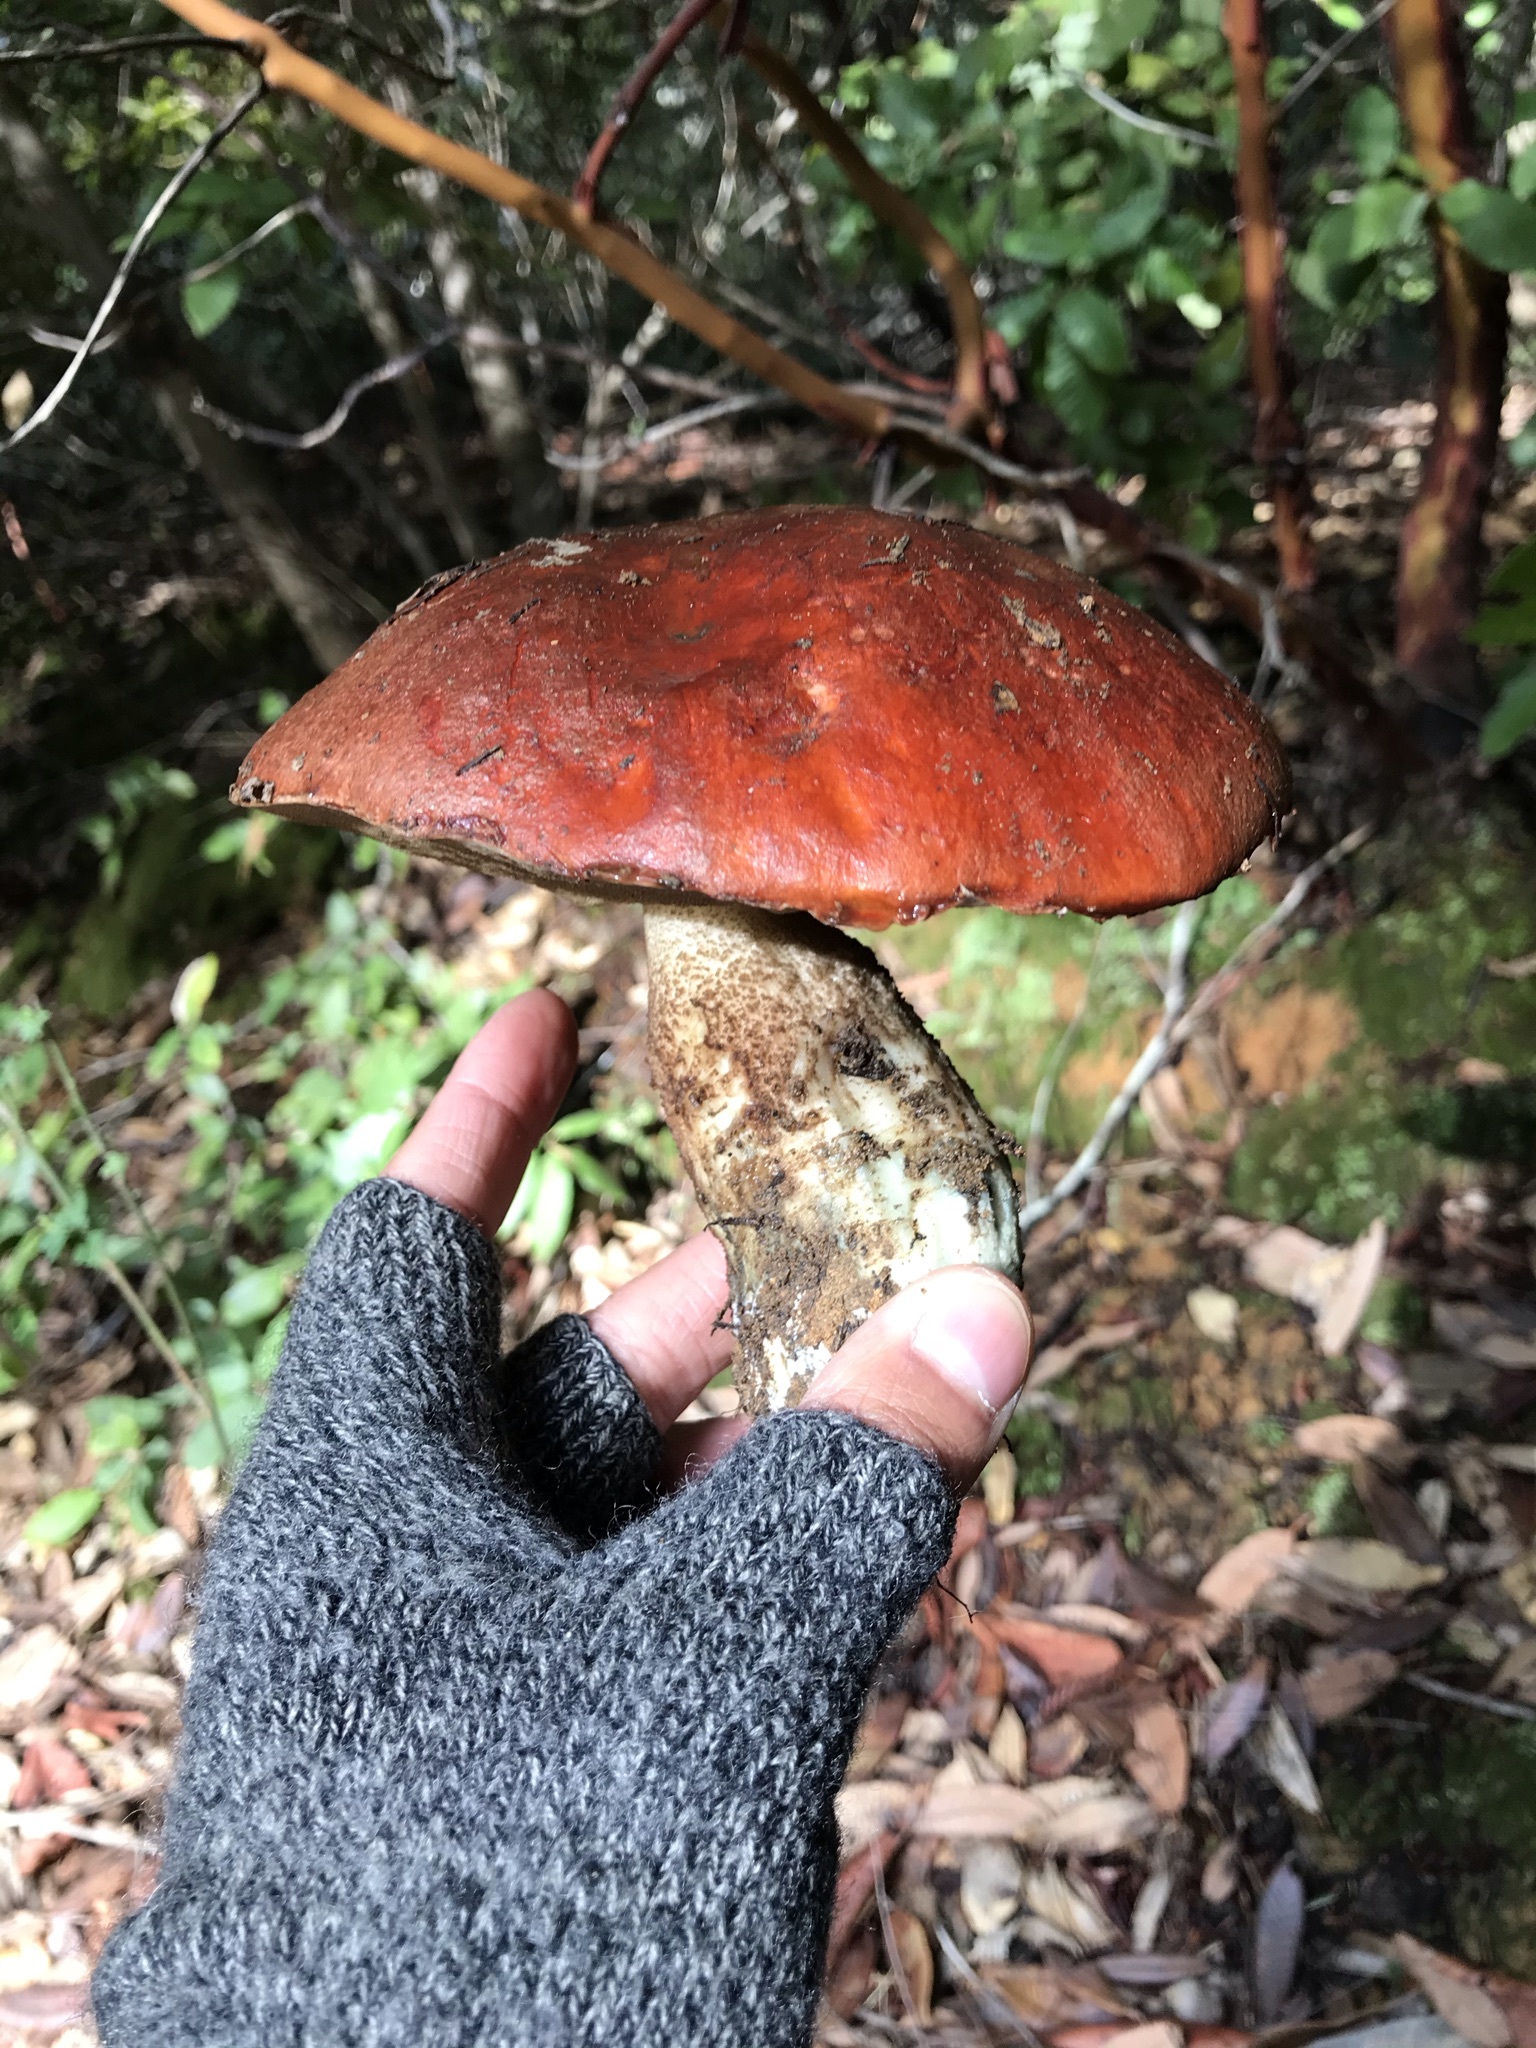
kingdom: Fungi
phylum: Basidiomycota
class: Agaricomycetes
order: Boletales
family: Boletaceae
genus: Leccinum
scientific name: Leccinum manzanitae
